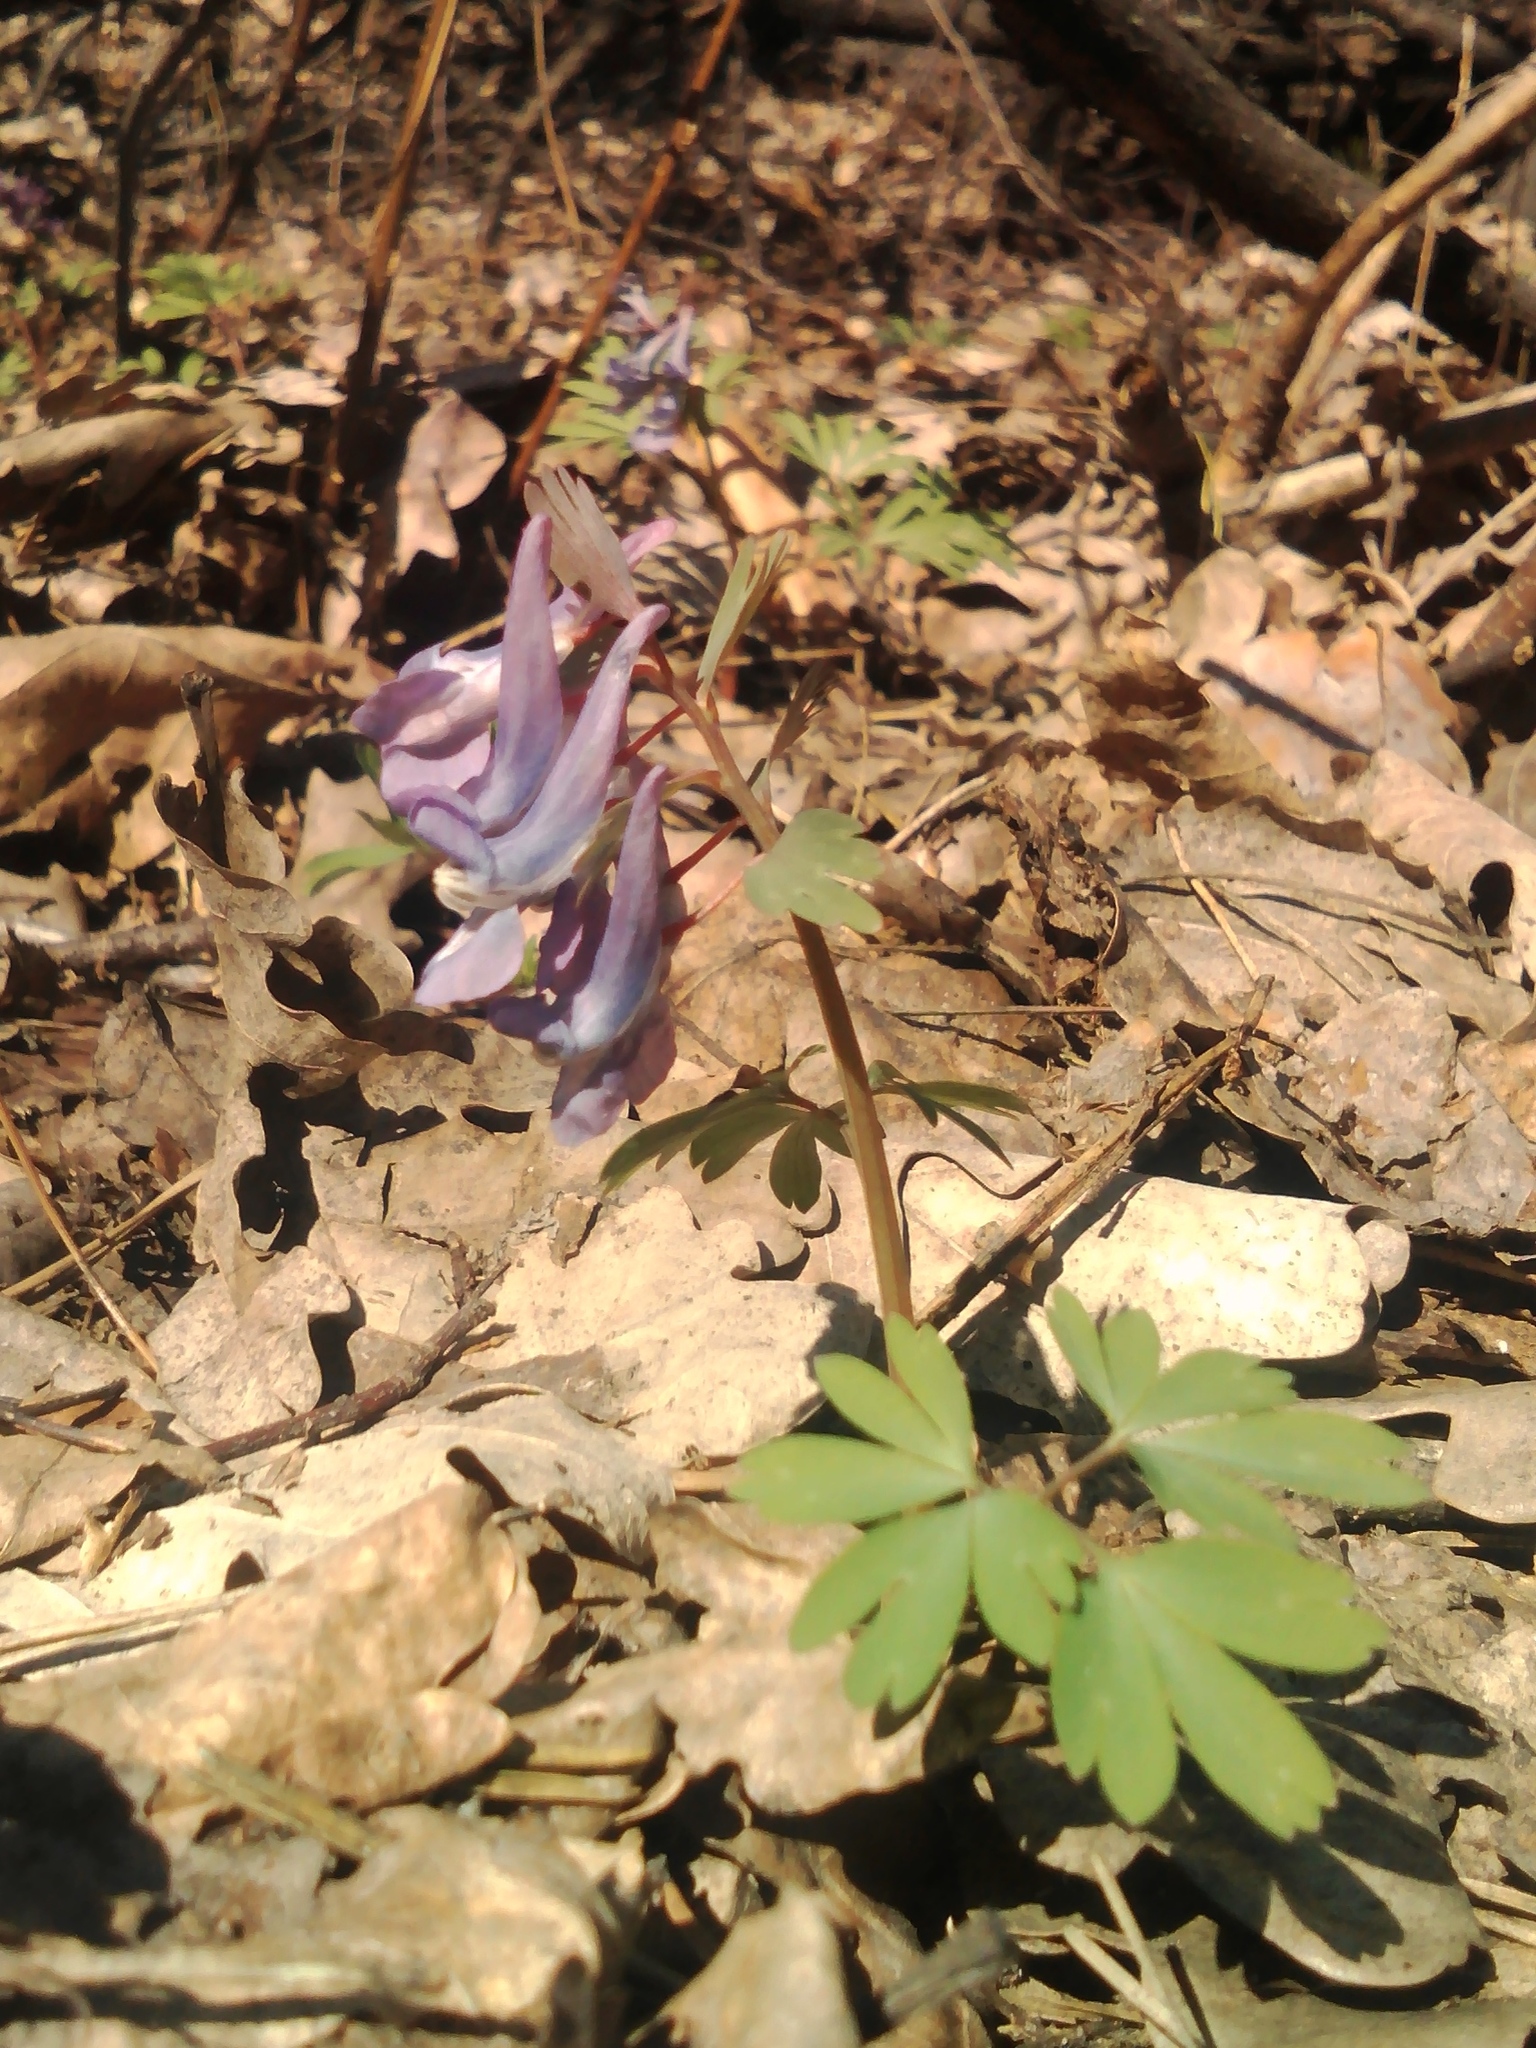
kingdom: Plantae
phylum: Tracheophyta
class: Magnoliopsida
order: Ranunculales
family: Papaveraceae
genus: Corydalis
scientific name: Corydalis solida
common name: Bird-in-a-bush
